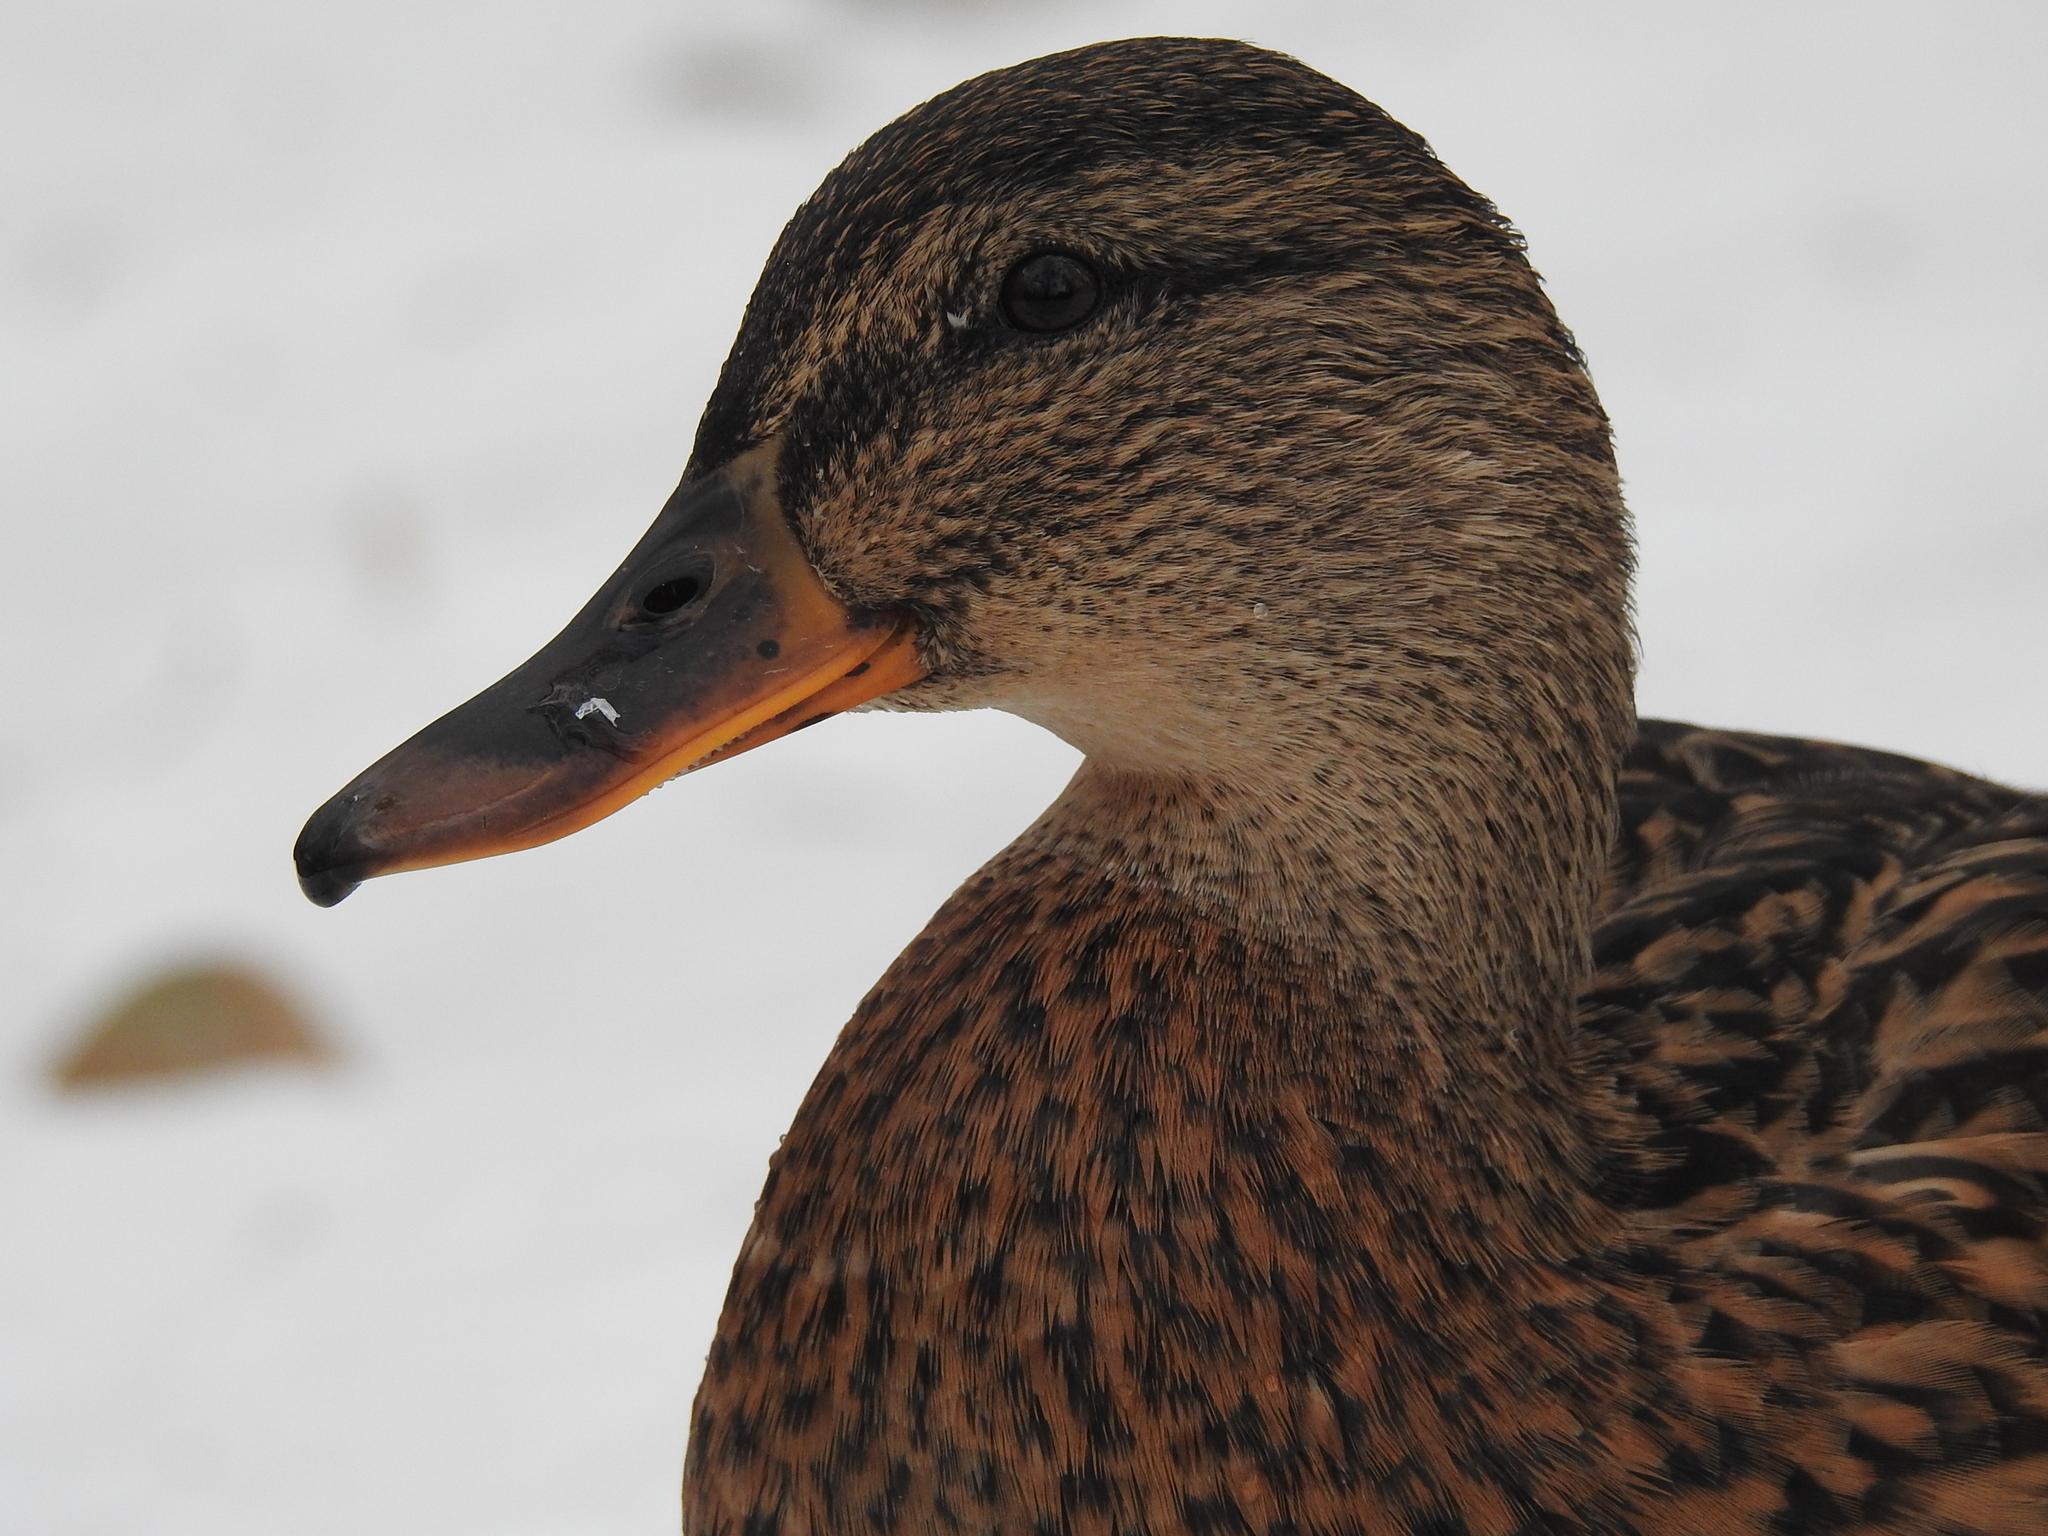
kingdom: Animalia
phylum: Chordata
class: Aves
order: Anseriformes
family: Anatidae
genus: Anas
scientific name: Anas platyrhynchos
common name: Mallard
